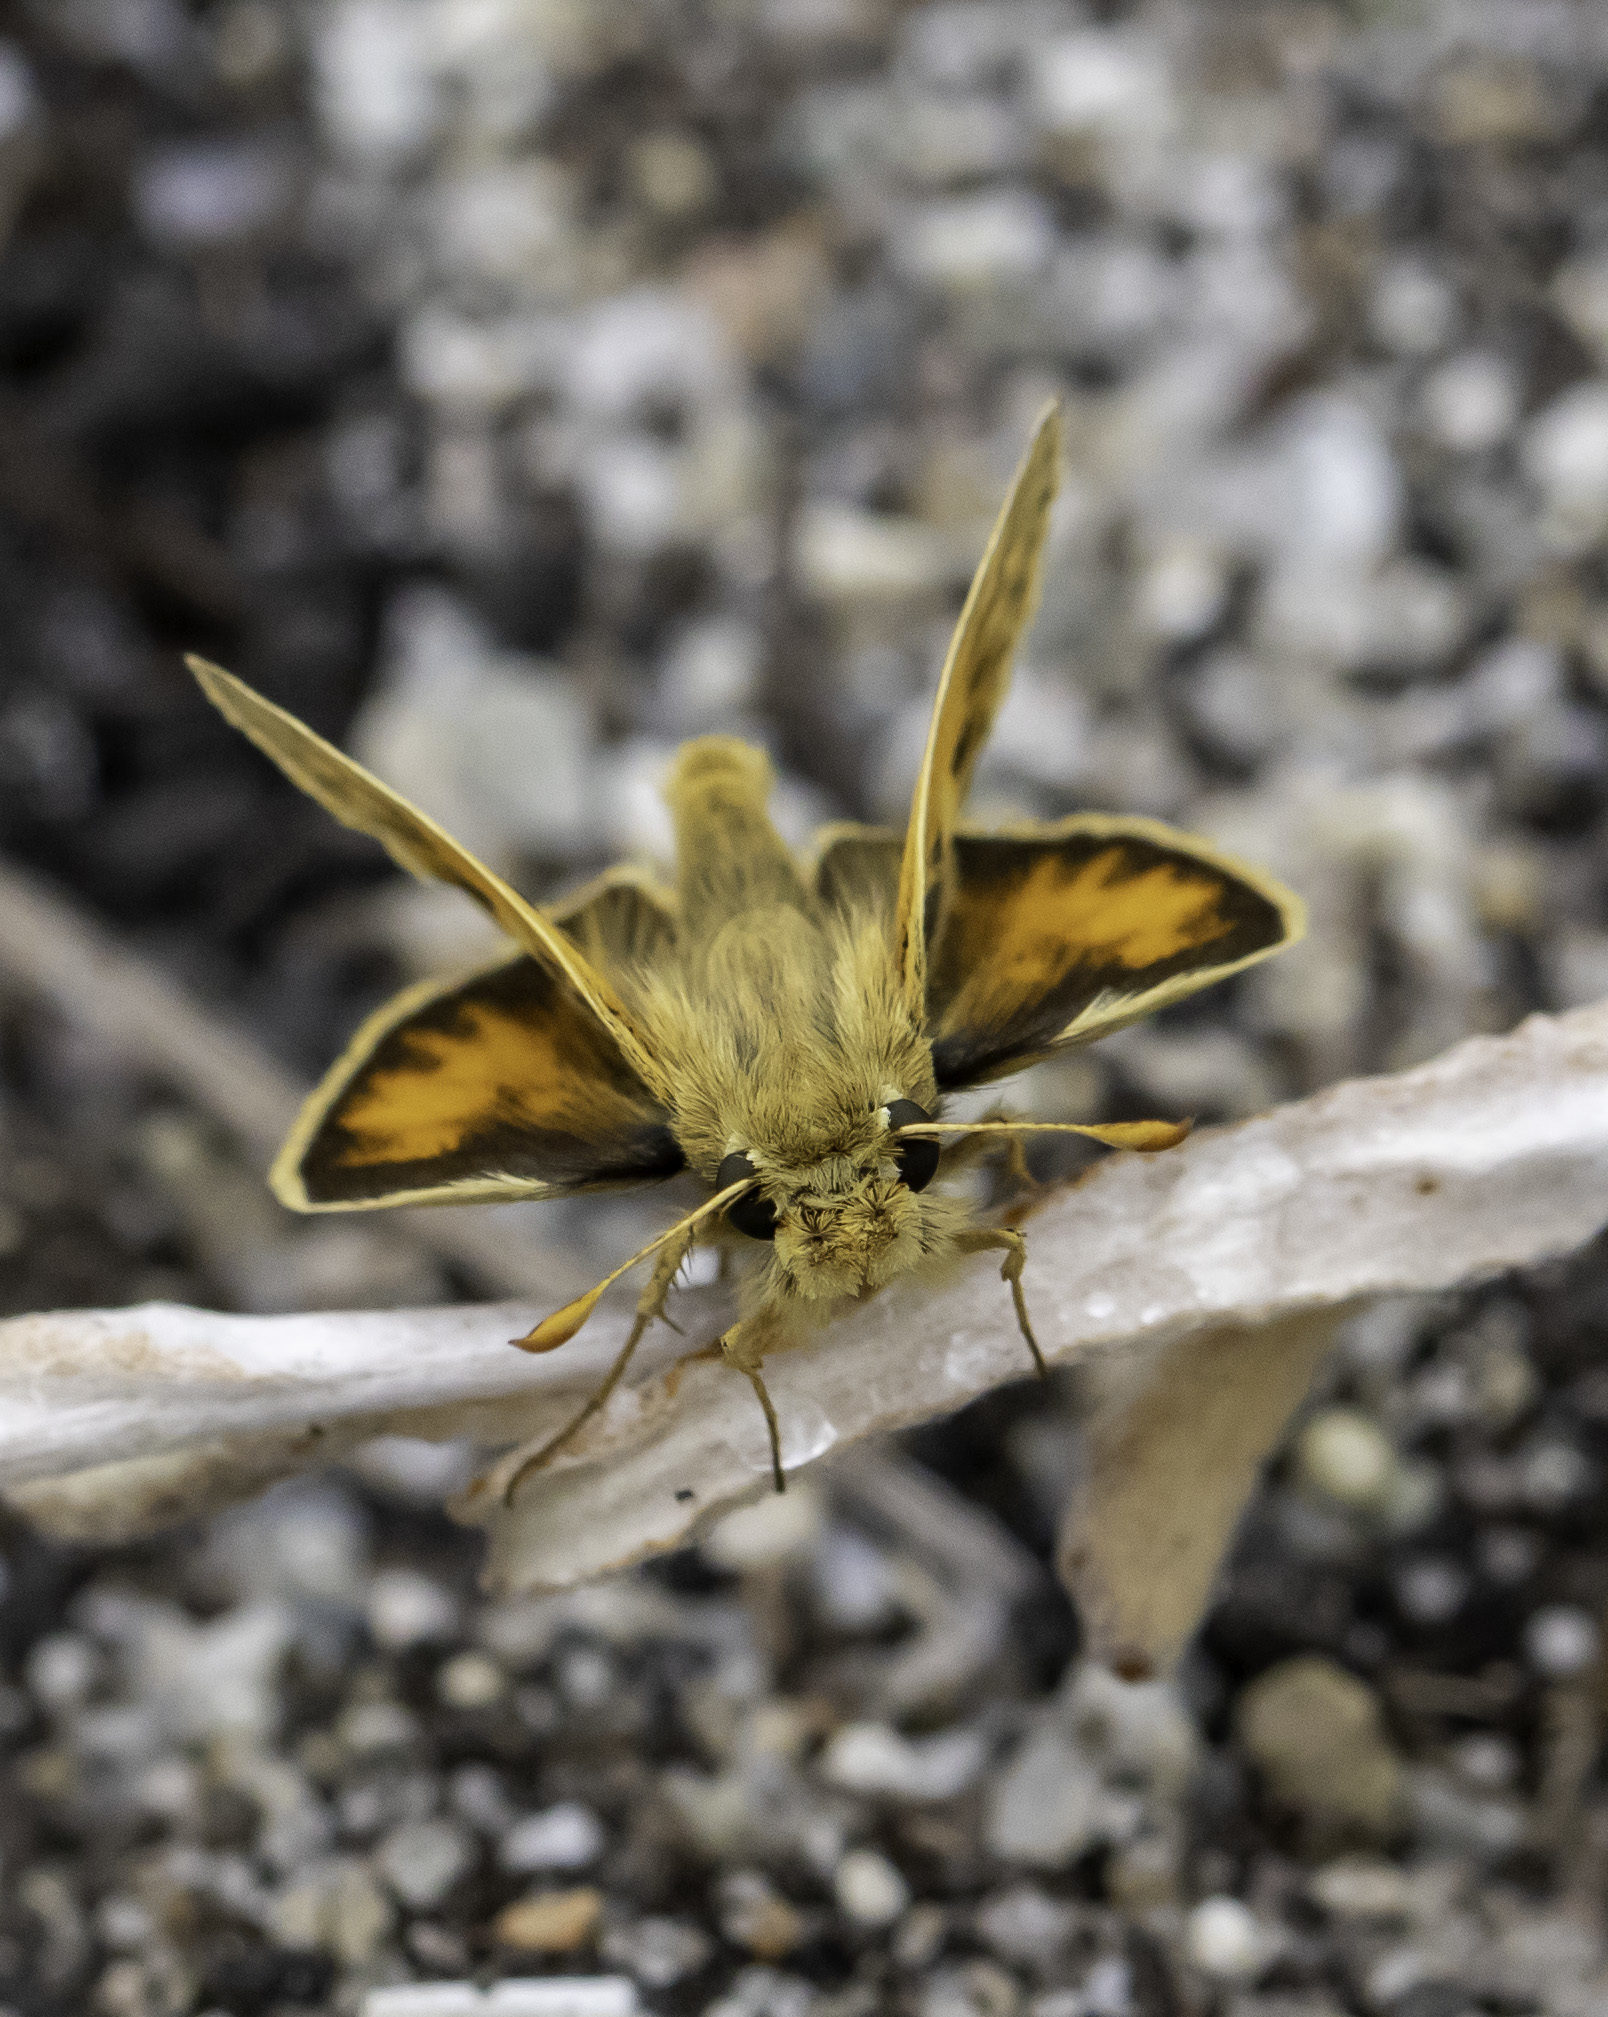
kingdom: Animalia
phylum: Arthropoda
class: Insecta
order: Lepidoptera
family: Hesperiidae
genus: Polites
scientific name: Polites sabuleti
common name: Sandhill skipper
